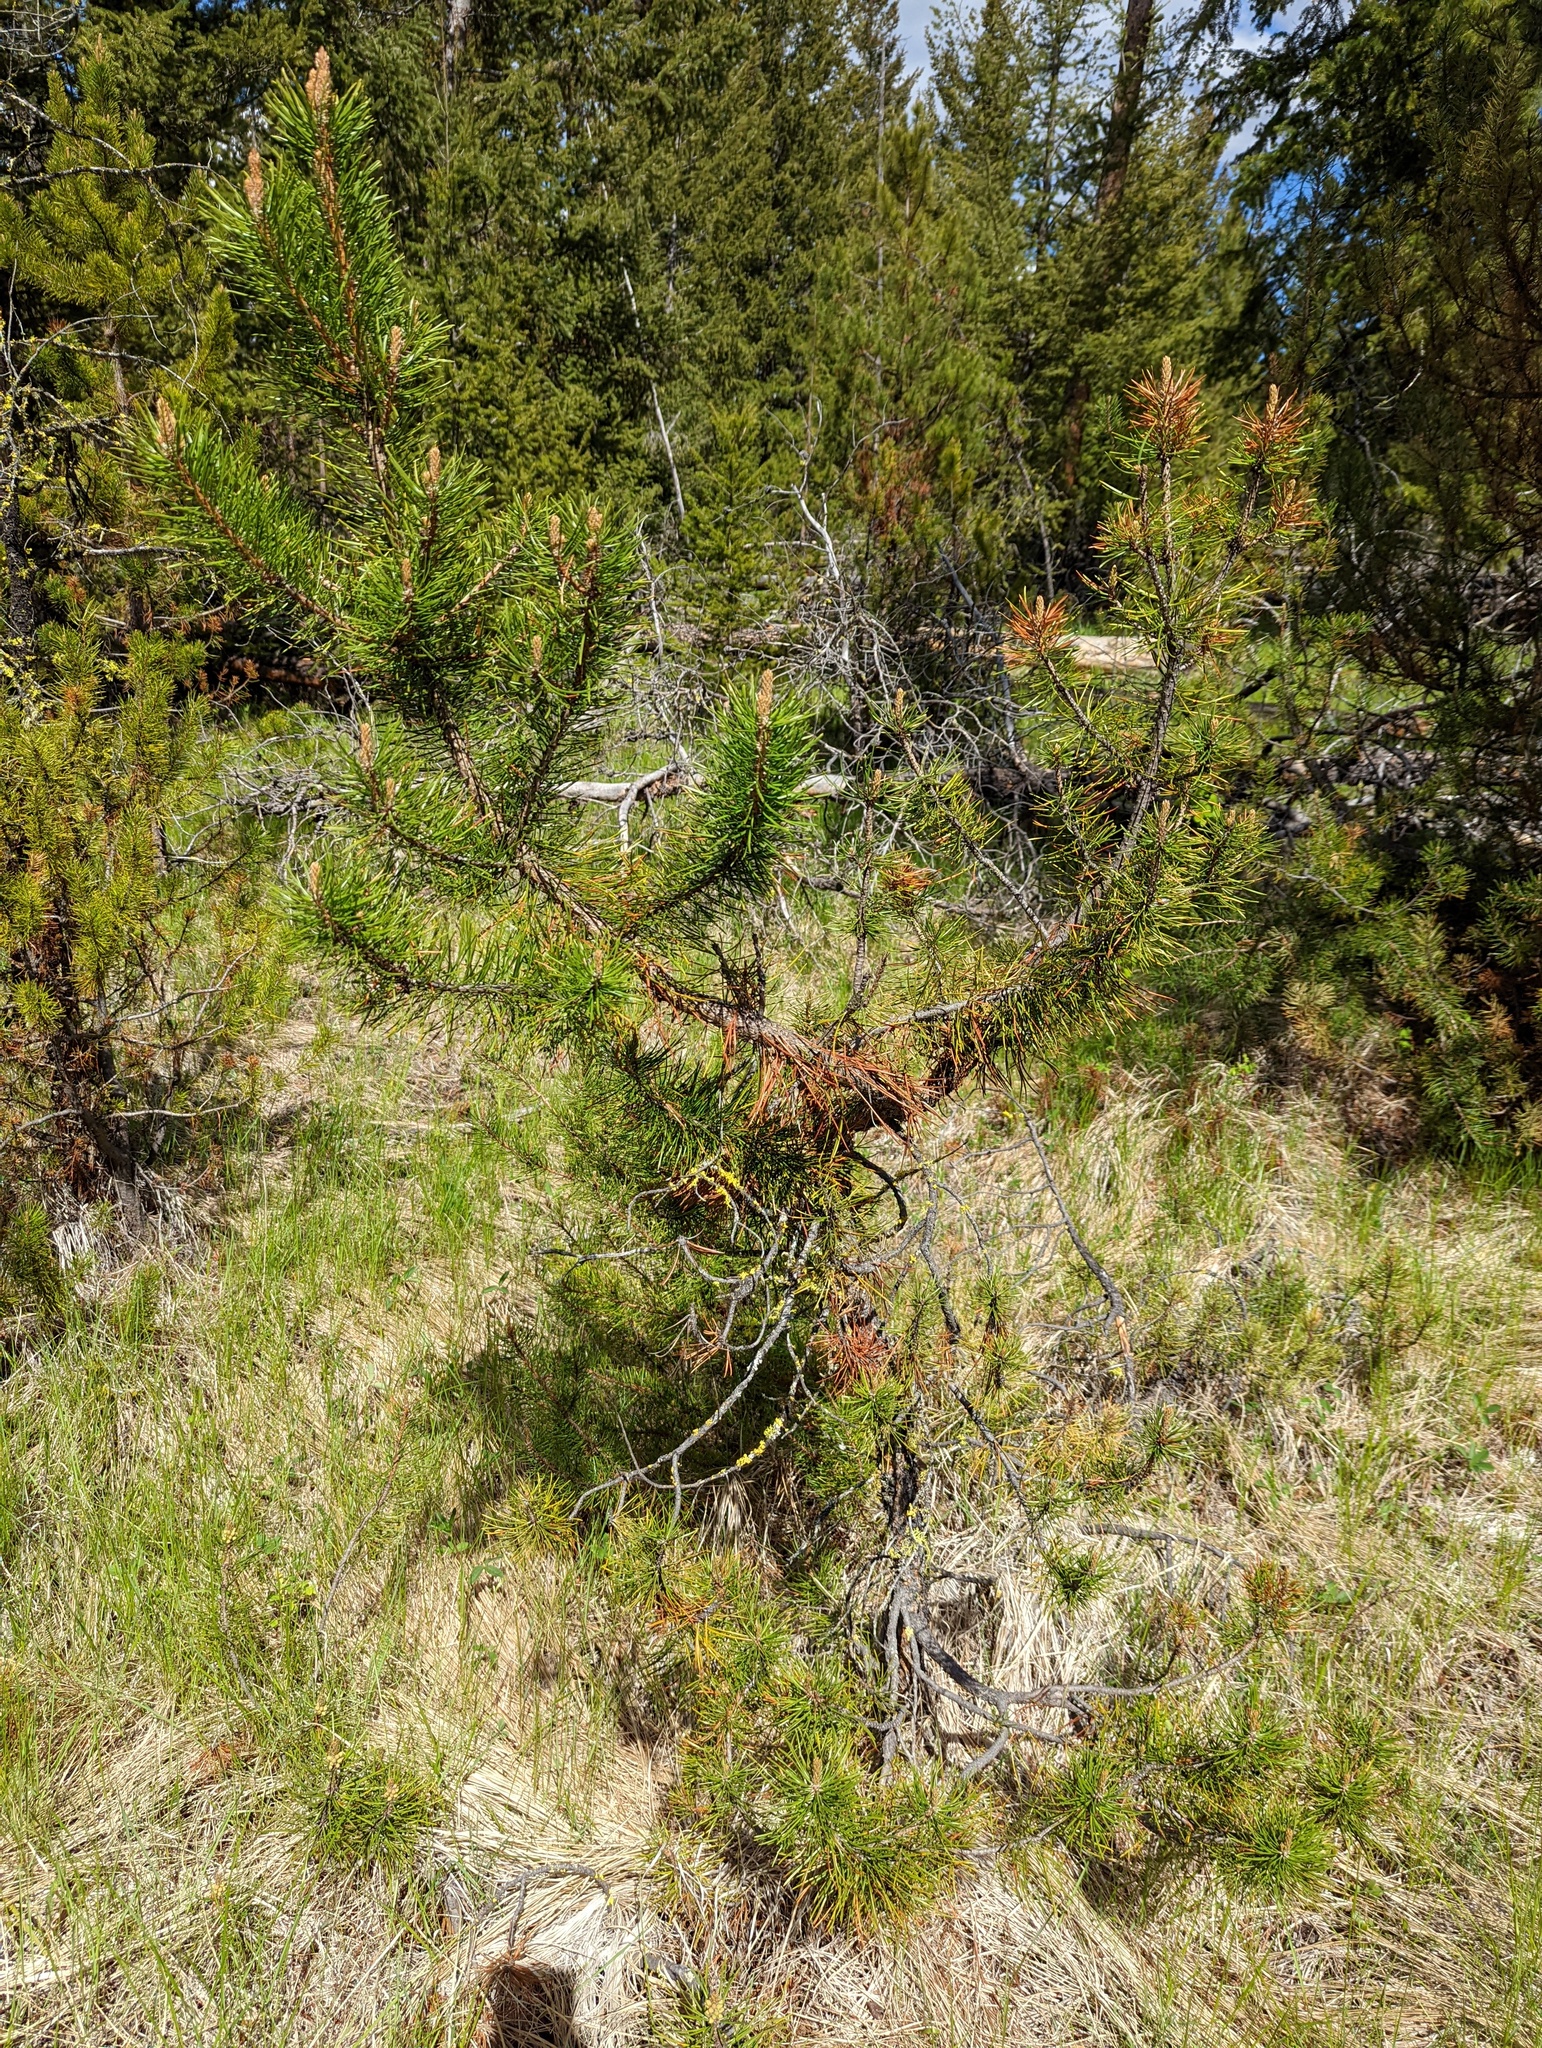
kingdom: Plantae
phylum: Tracheophyta
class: Pinopsida
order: Pinales
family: Pinaceae
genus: Pinus
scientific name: Pinus contorta
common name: Lodgepole pine
